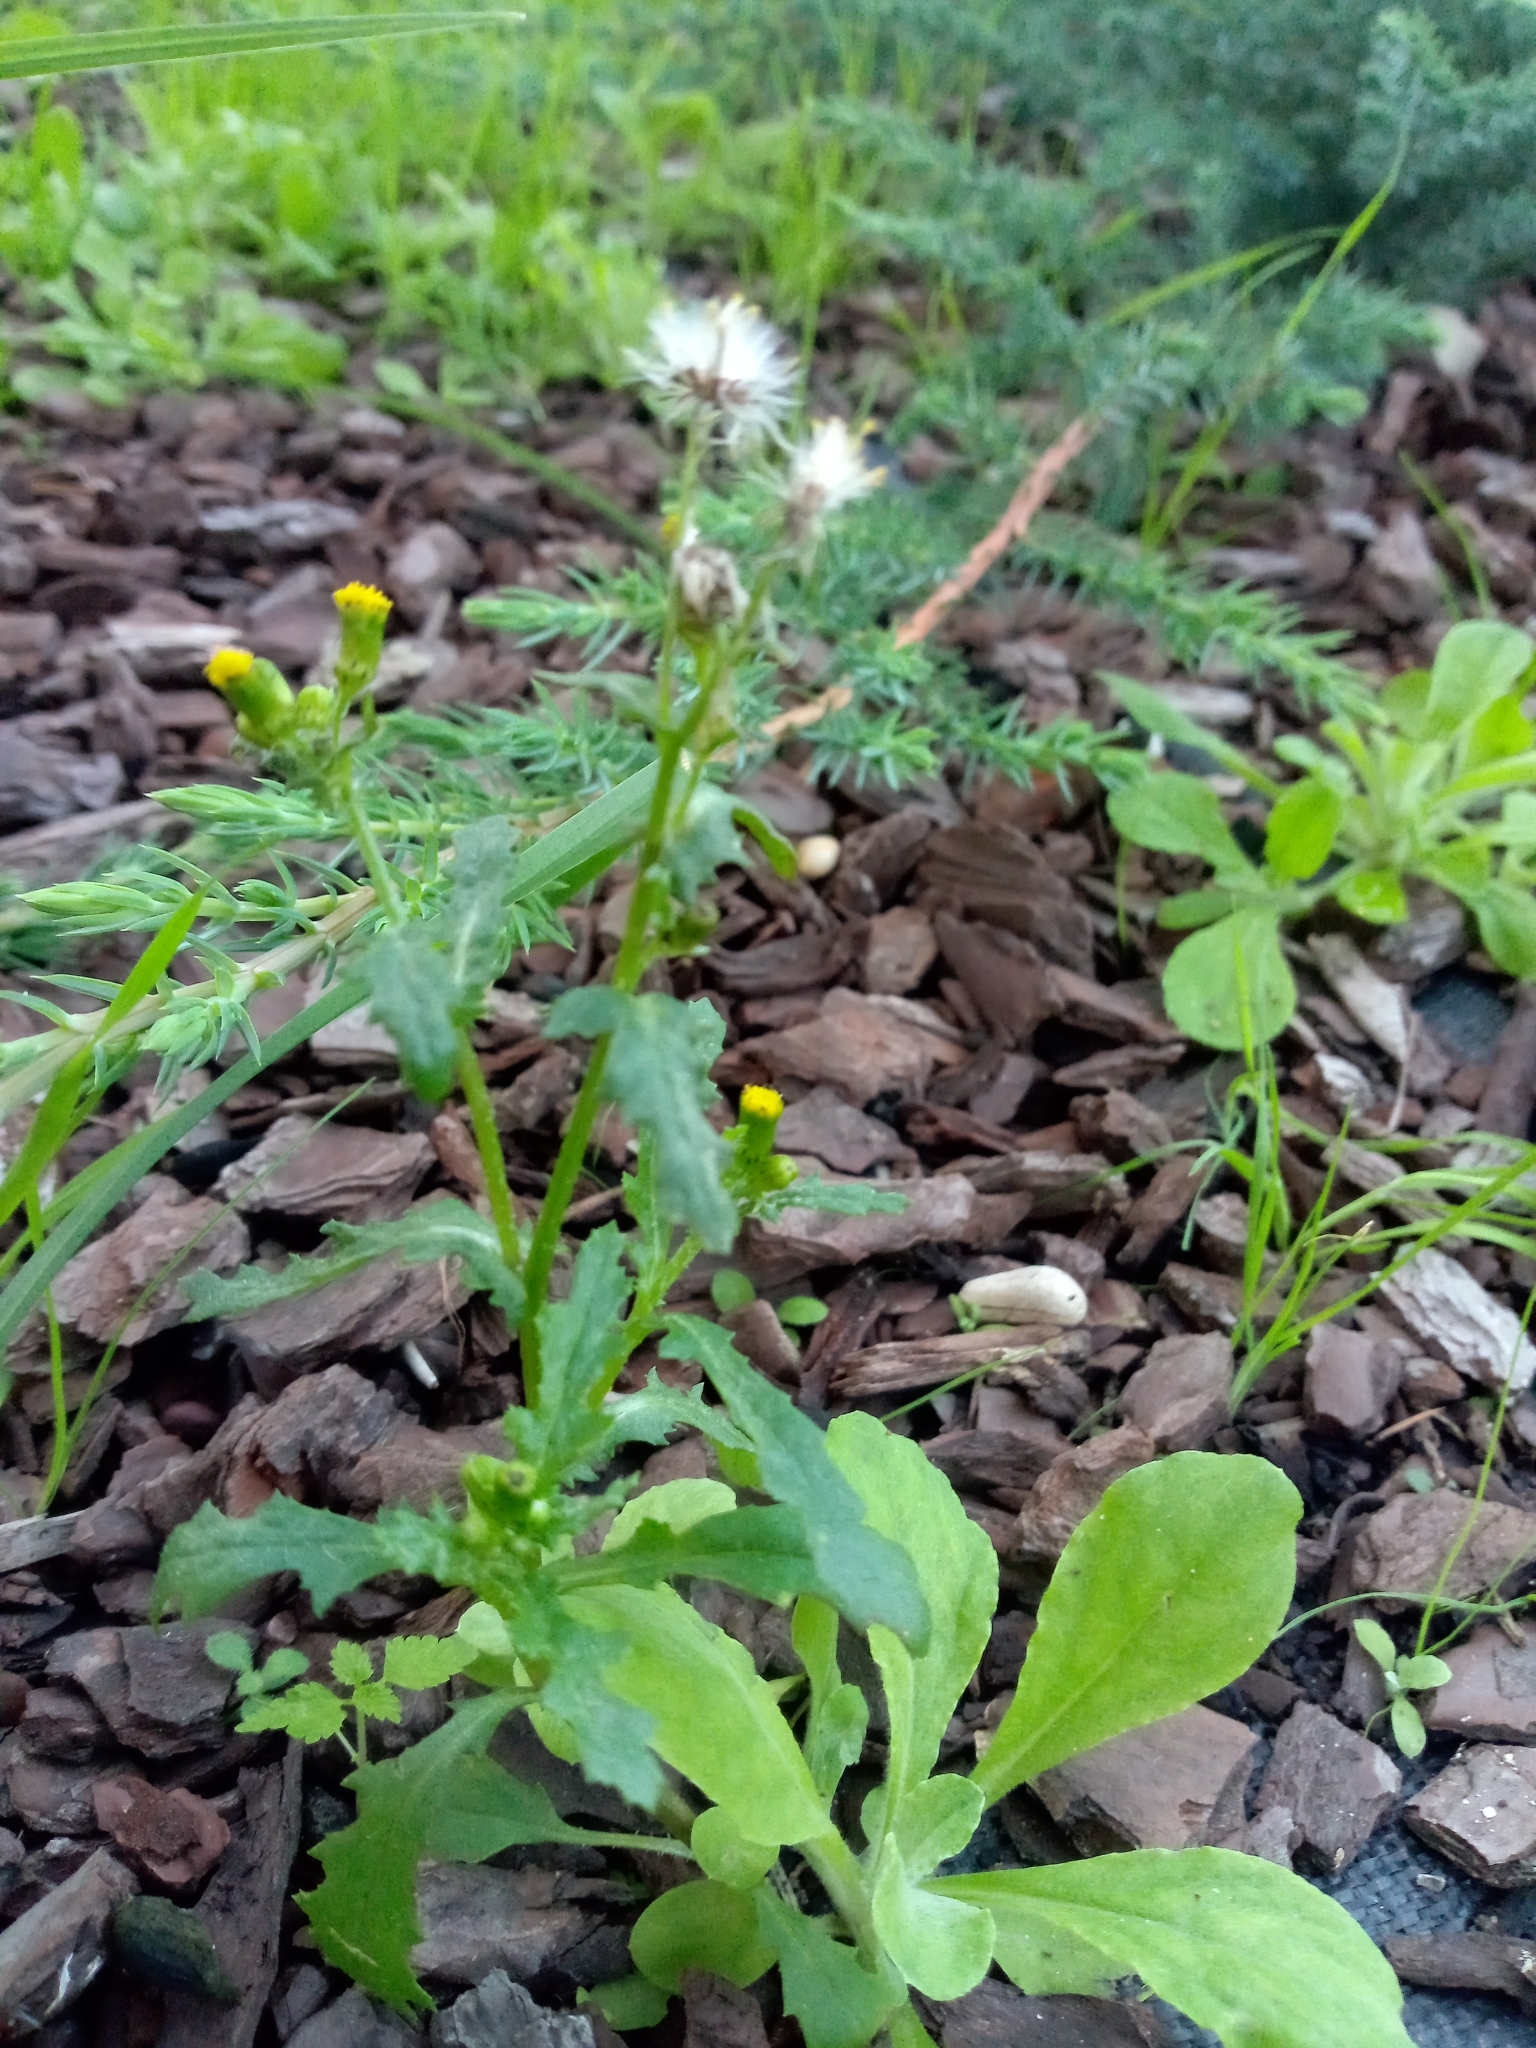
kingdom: Plantae
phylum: Tracheophyta
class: Magnoliopsida
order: Asterales
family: Asteraceae
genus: Senecio
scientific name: Senecio vulgaris
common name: Old-man-in-the-spring
